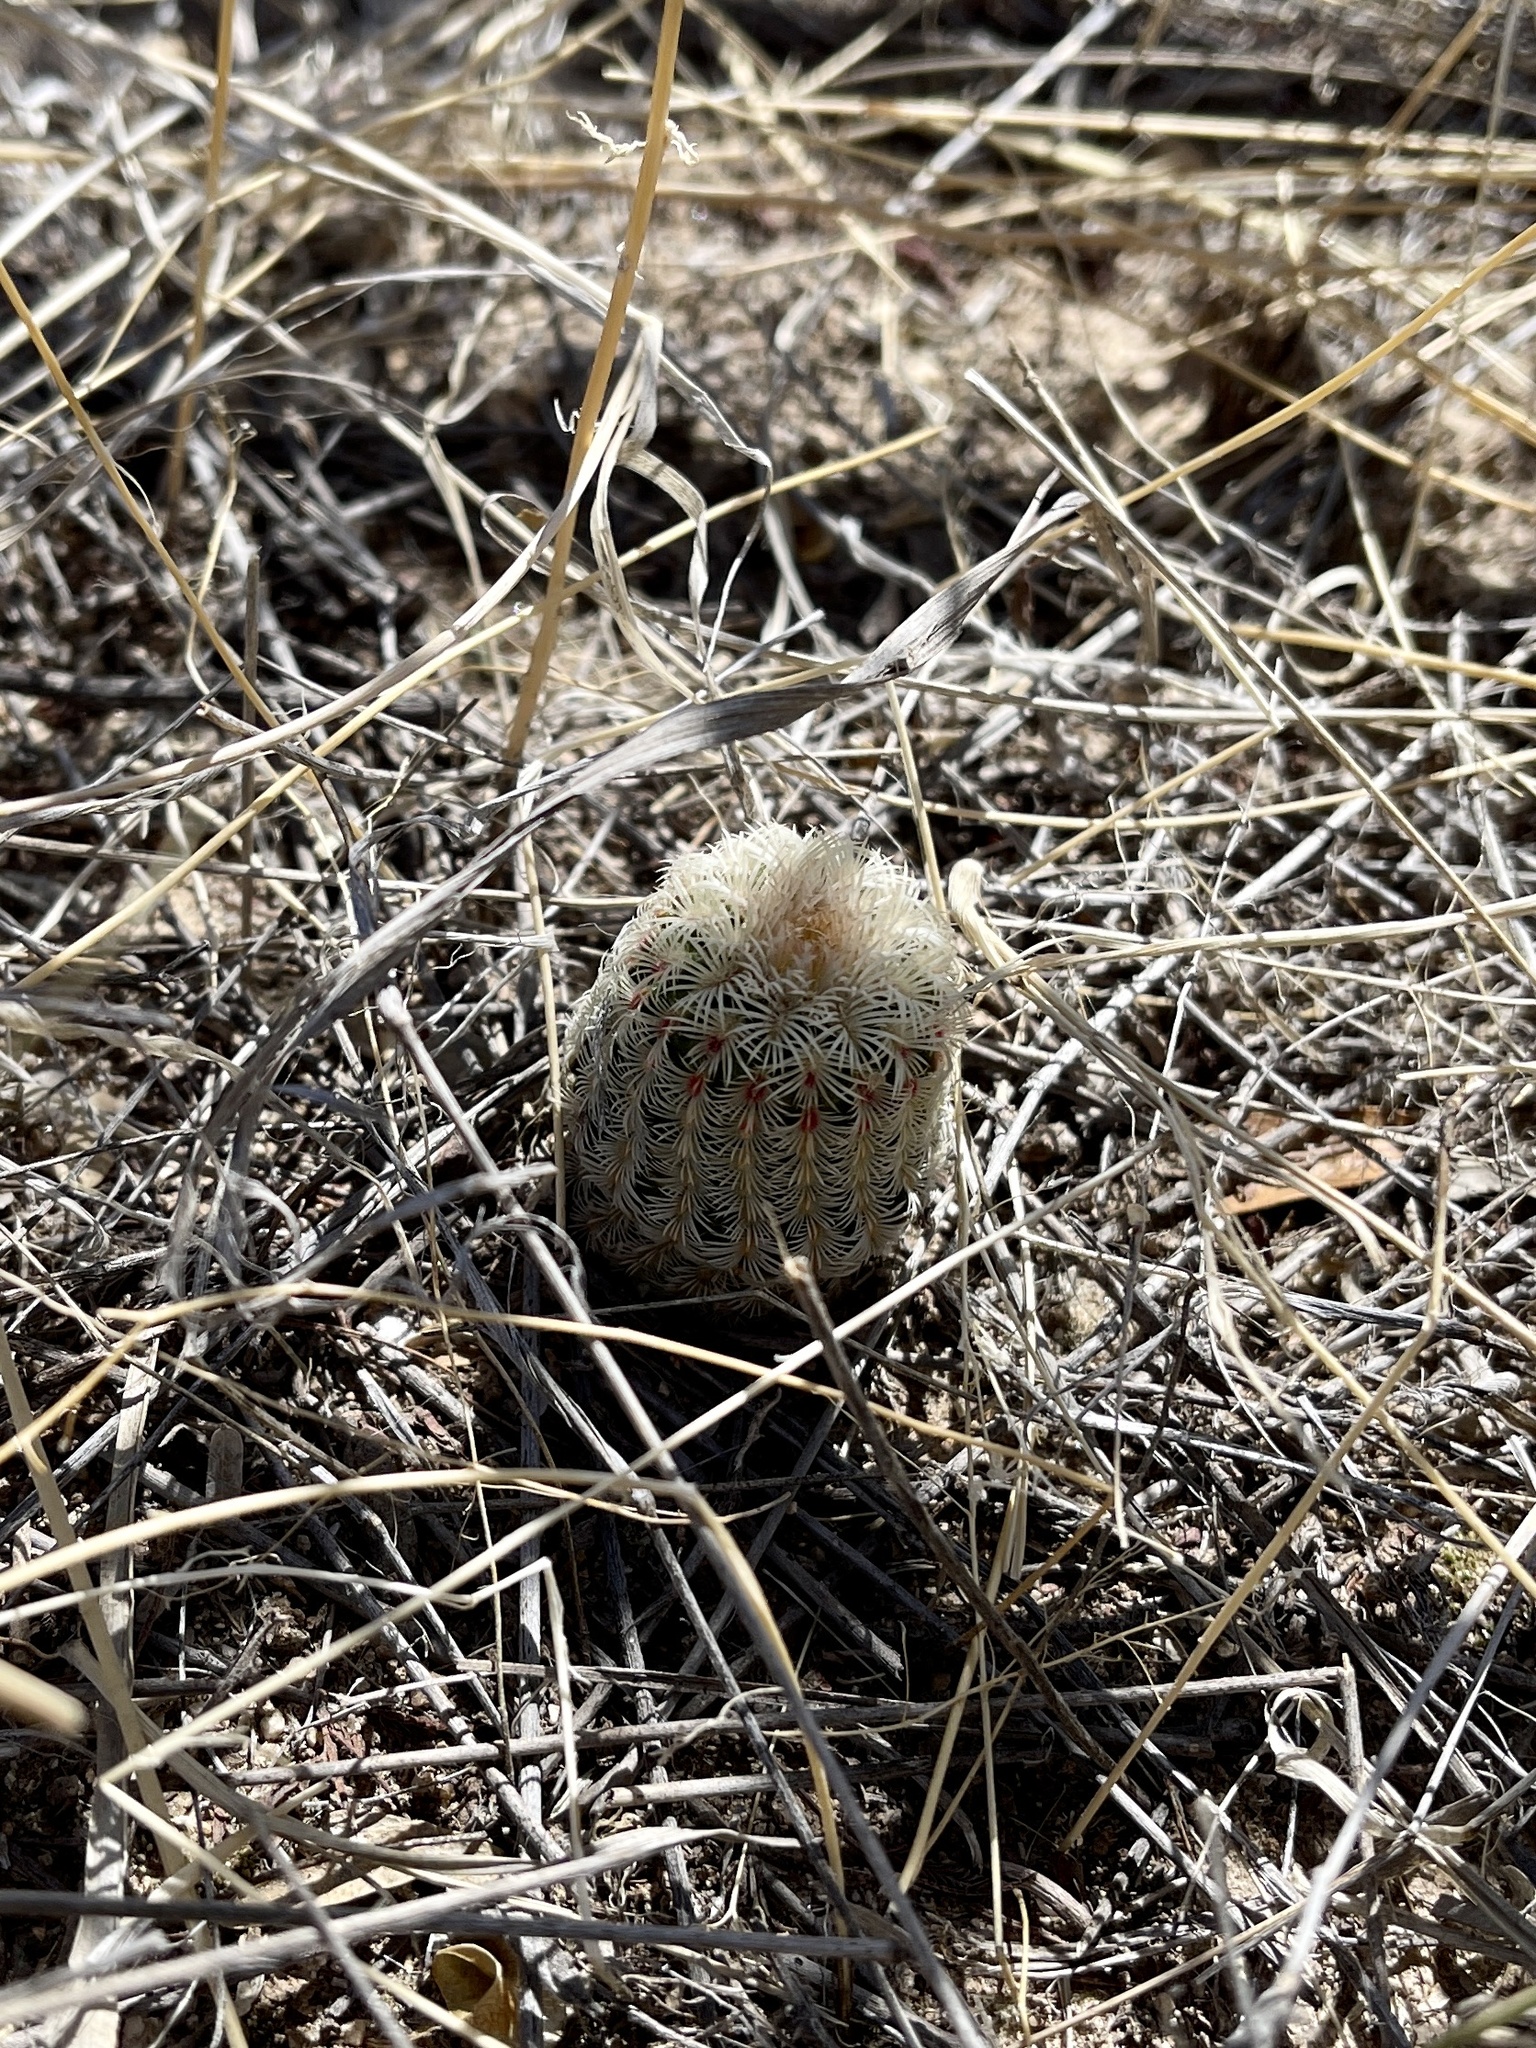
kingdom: Plantae
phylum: Tracheophyta
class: Magnoliopsida
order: Caryophyllales
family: Cactaceae
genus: Echinocereus
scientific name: Echinocereus rigidissimus
